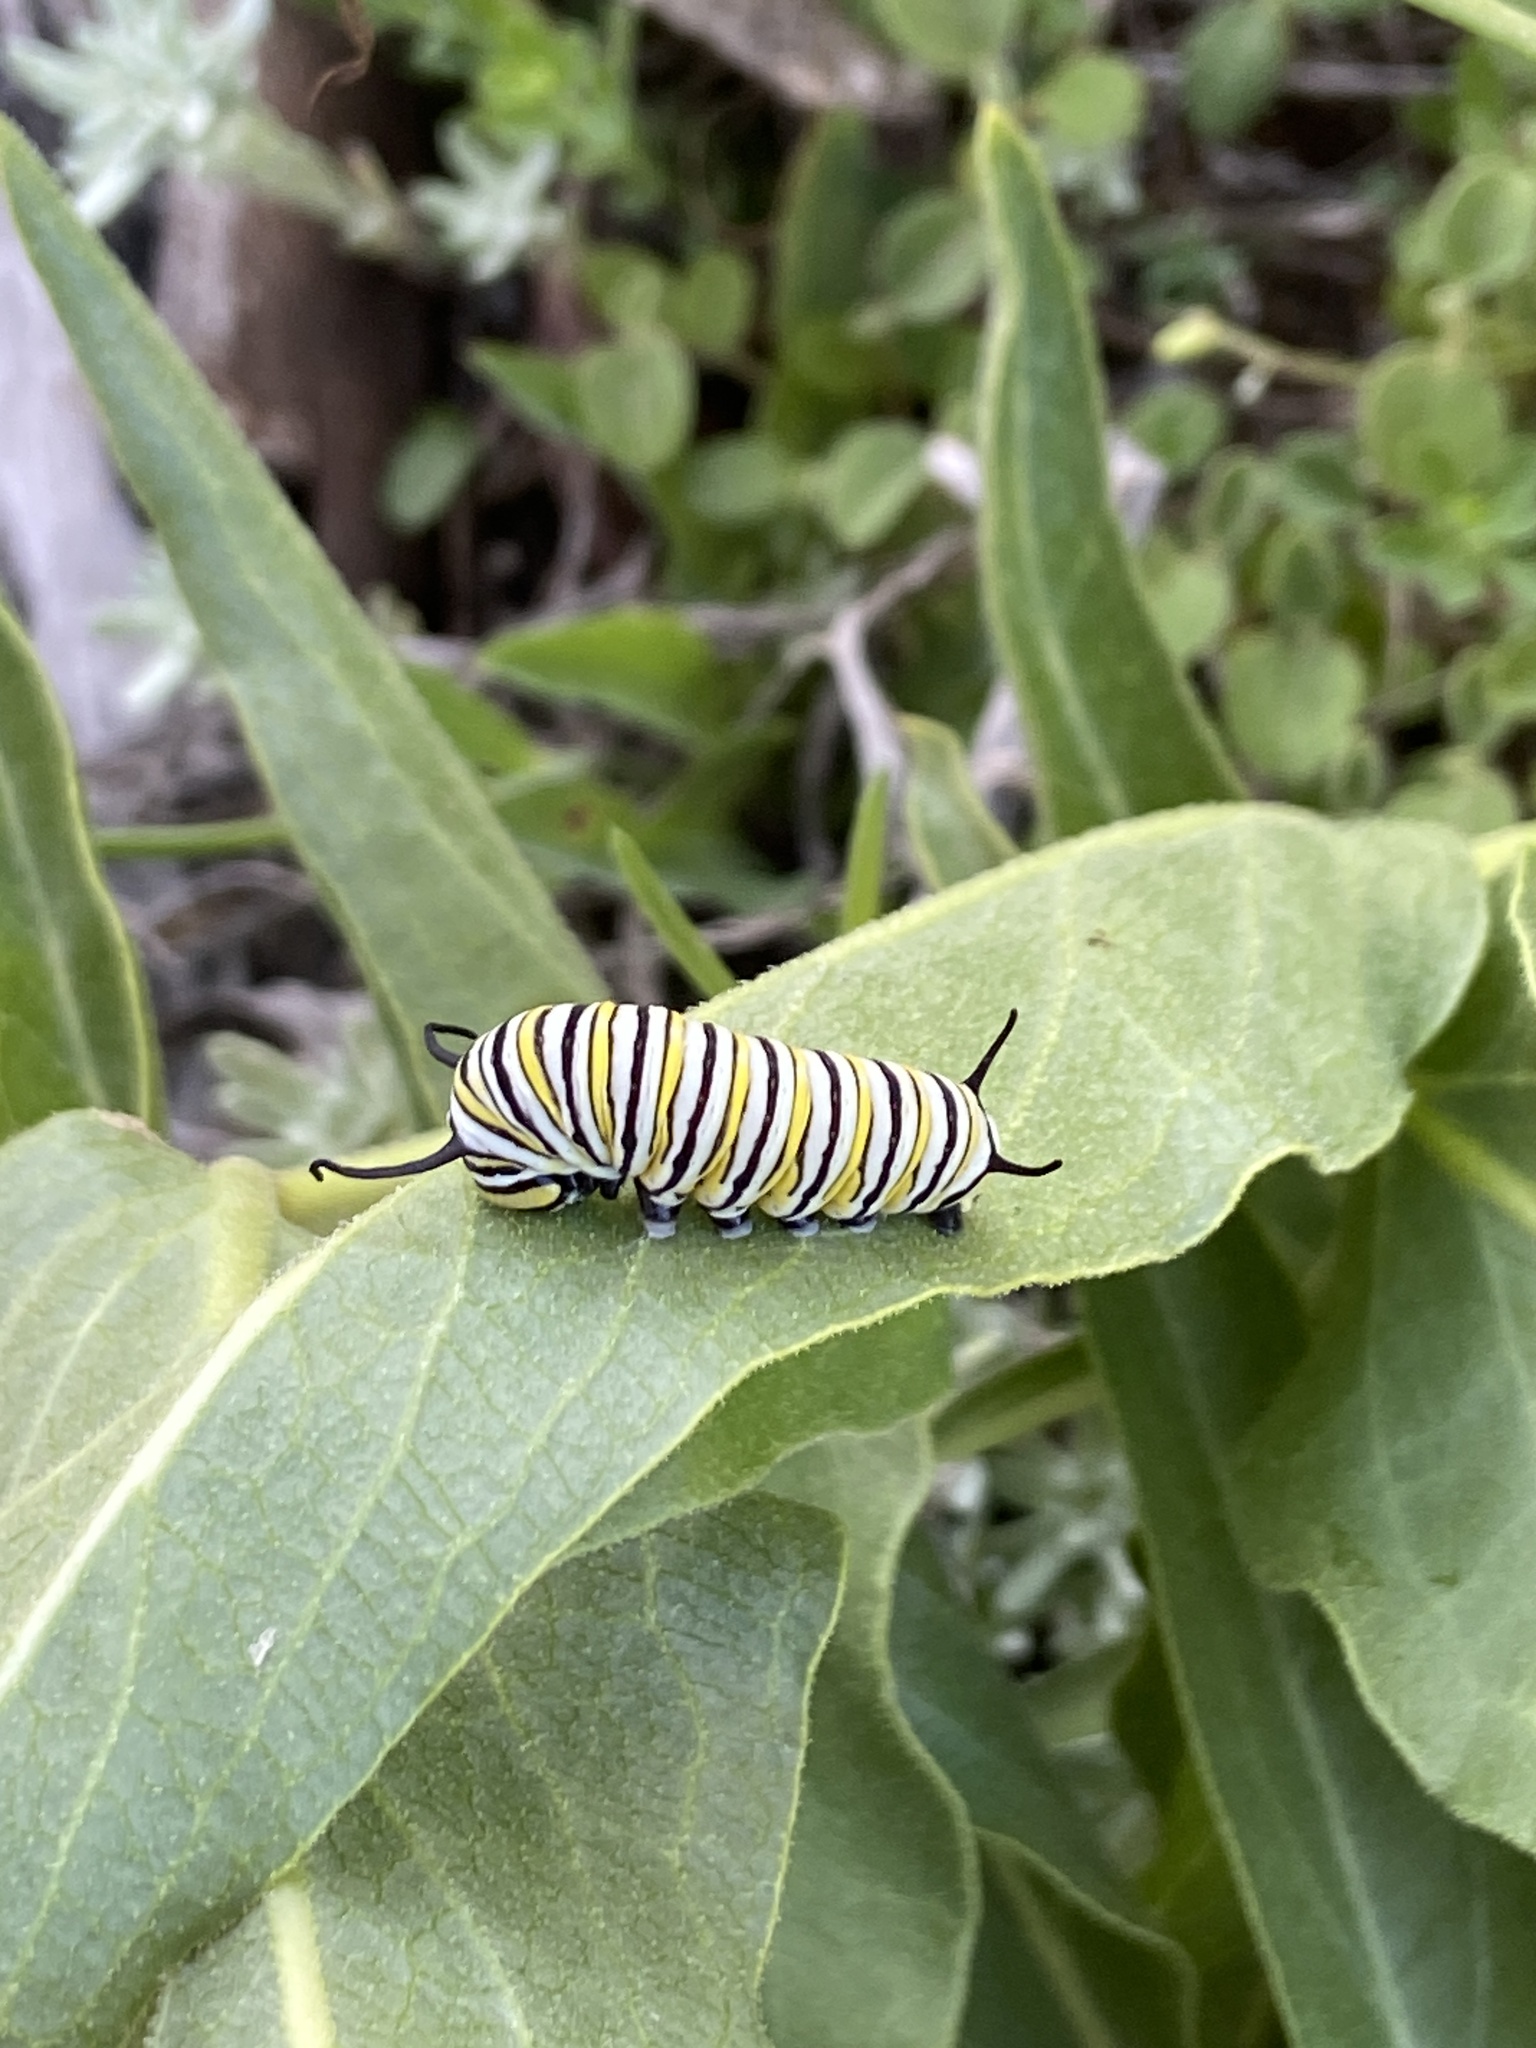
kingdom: Animalia
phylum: Arthropoda
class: Insecta
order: Lepidoptera
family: Nymphalidae
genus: Danaus
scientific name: Danaus plexippus
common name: Monarch
